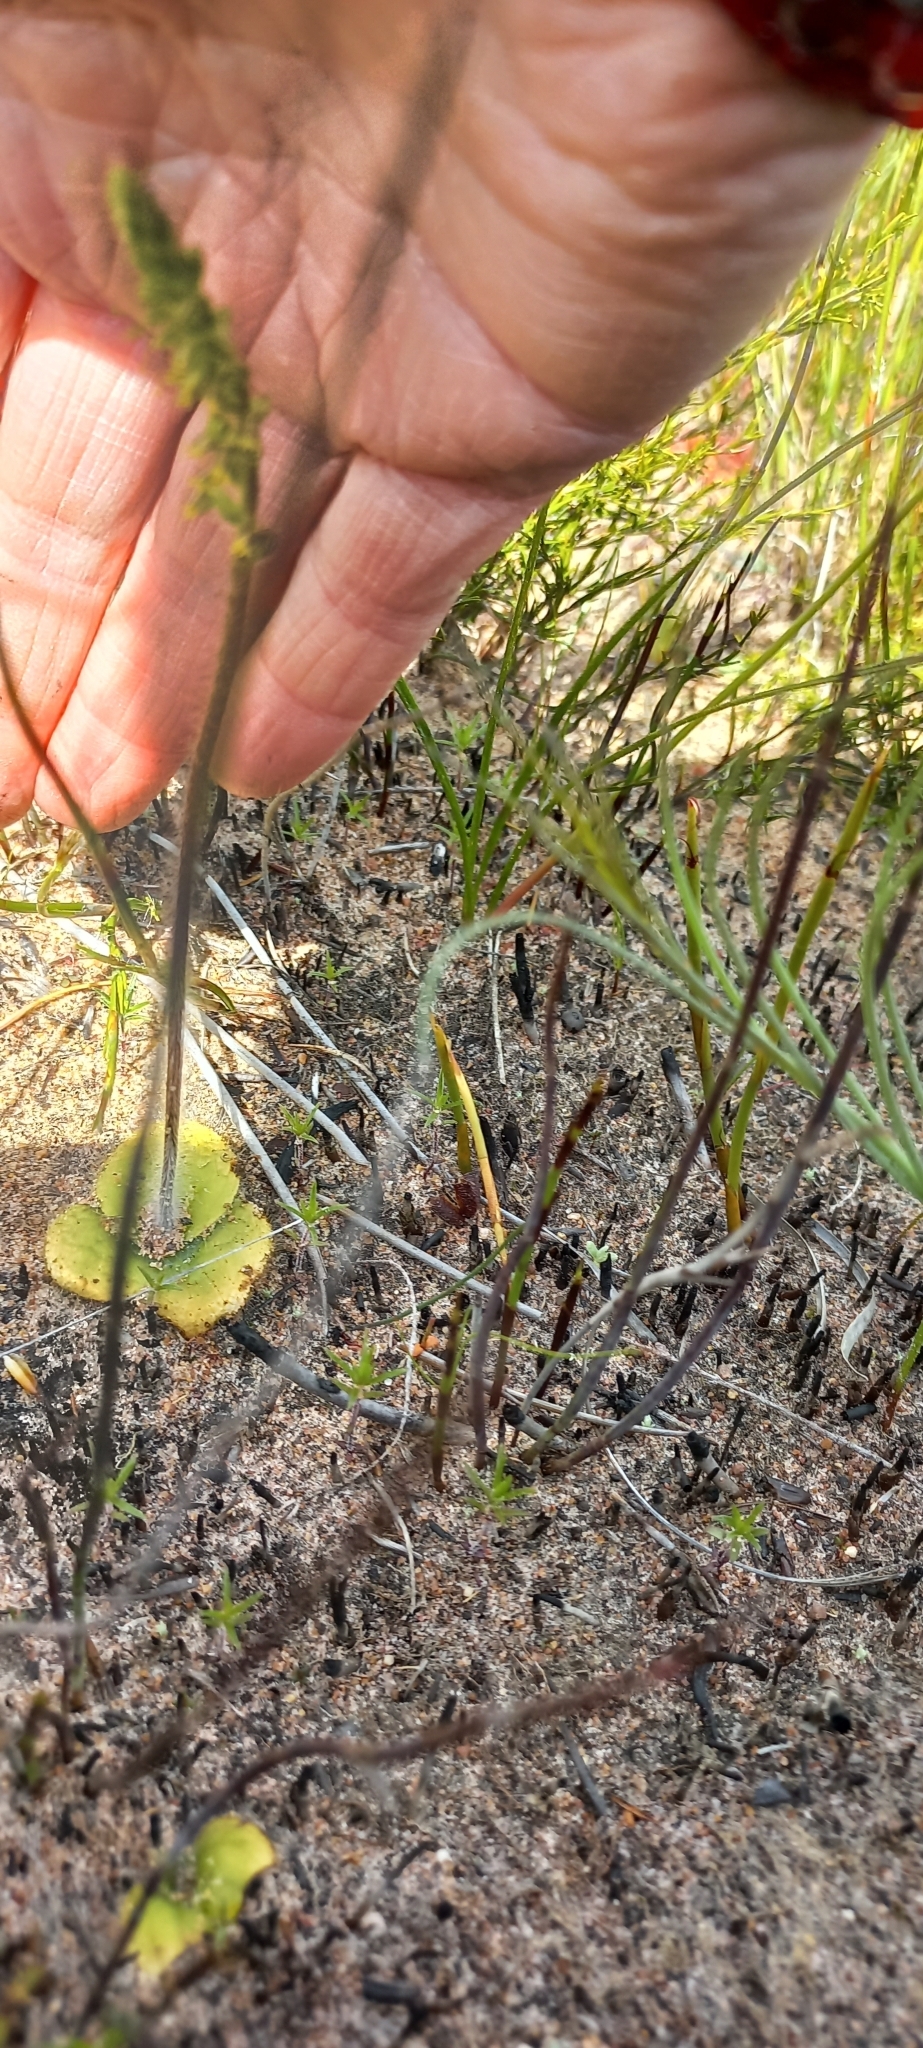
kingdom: Plantae
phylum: Tracheophyta
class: Liliopsida
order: Asparagales
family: Orchidaceae
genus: Holothrix
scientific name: Holothrix villosa
